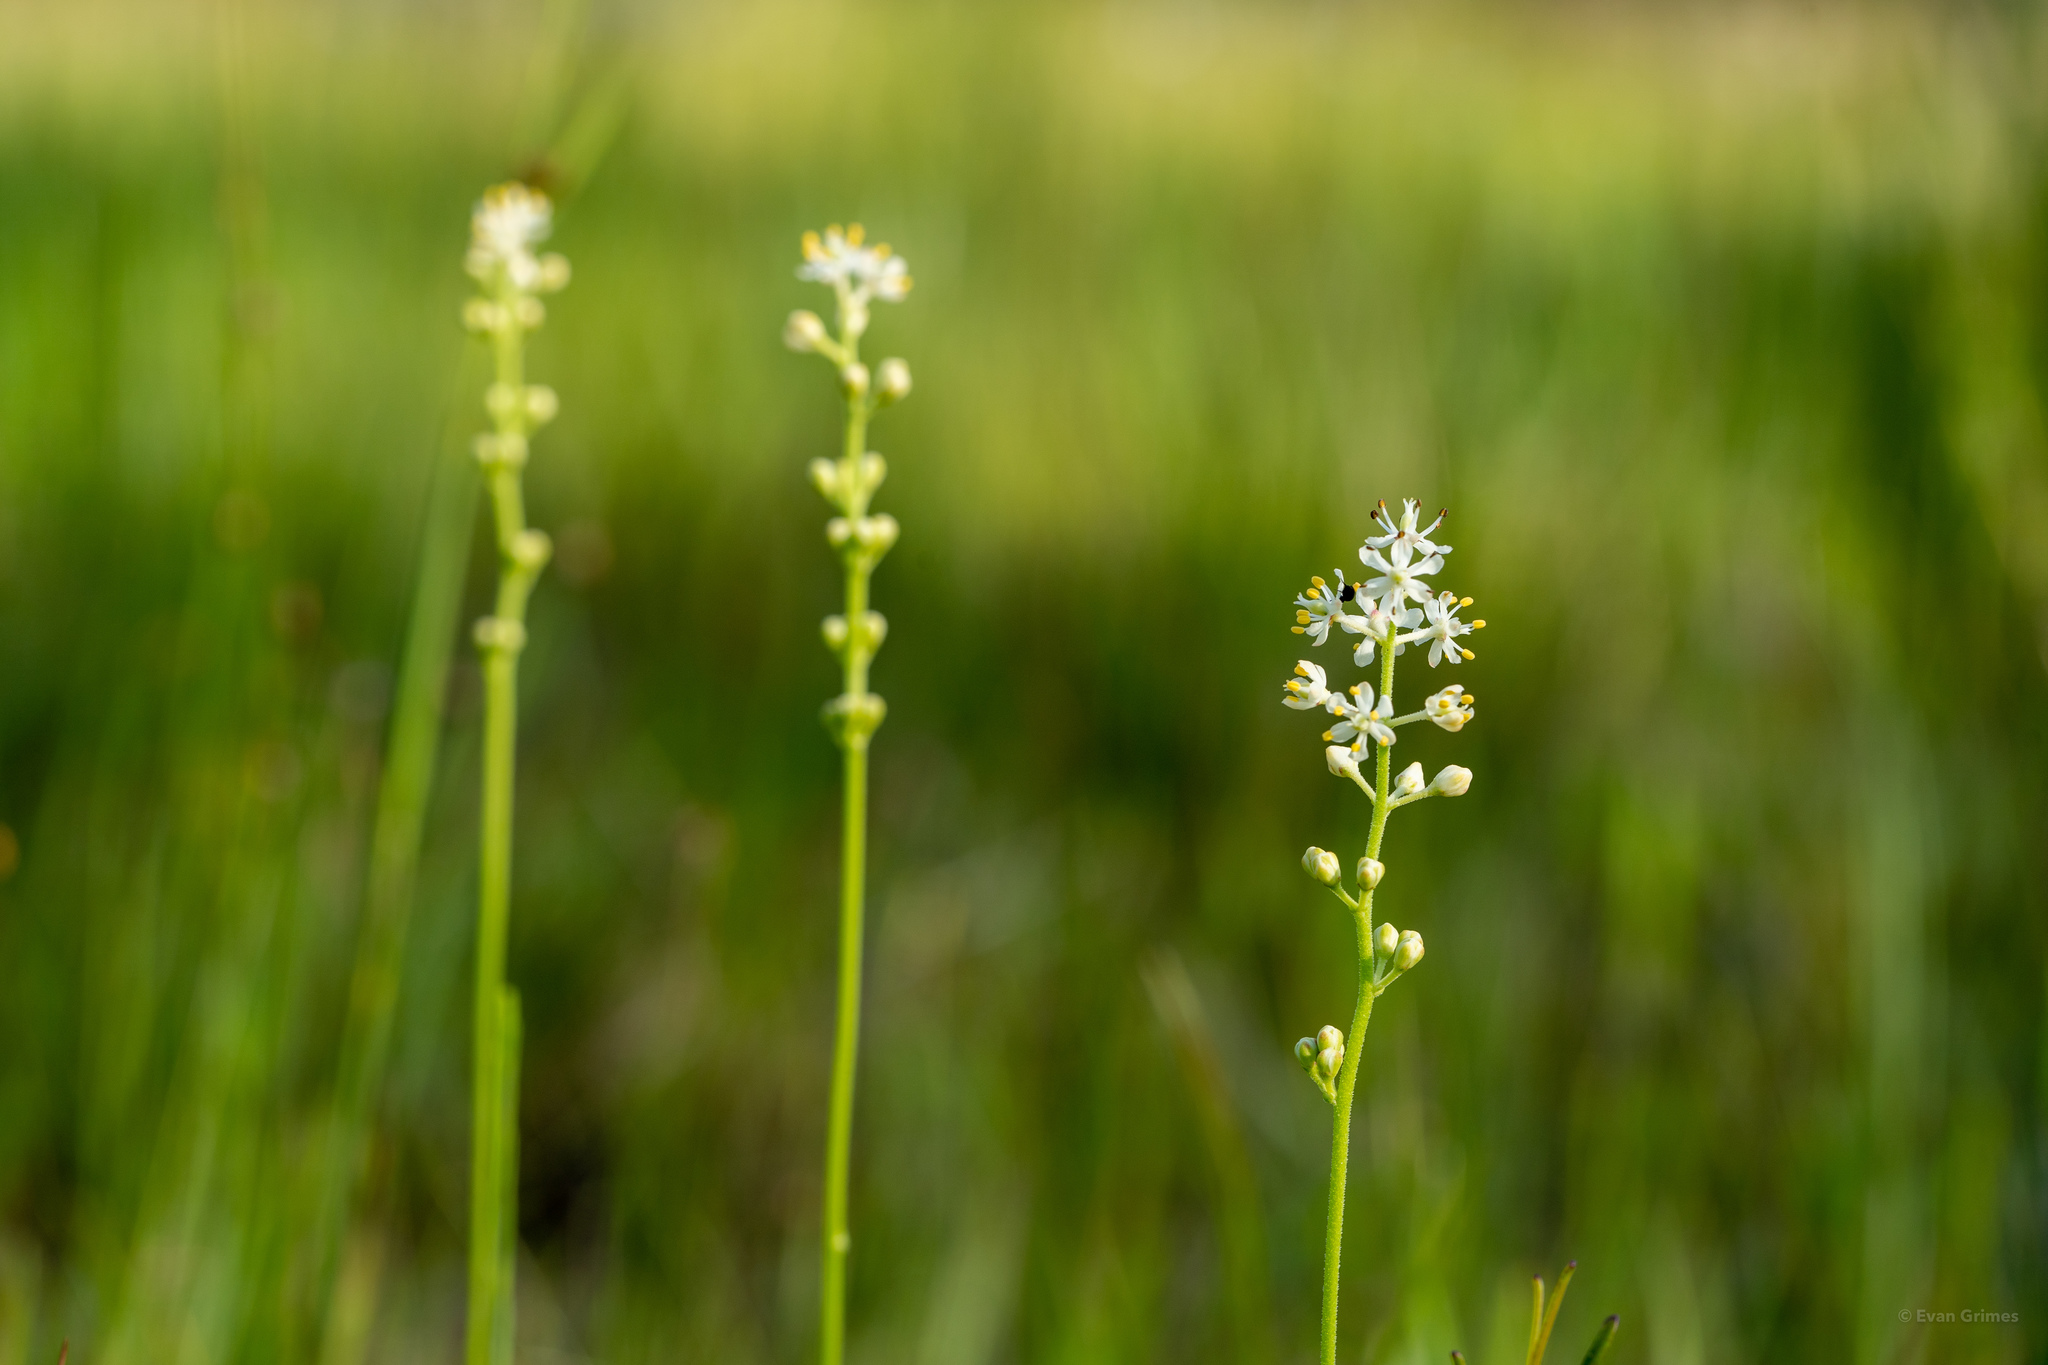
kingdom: Plantae
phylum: Tracheophyta
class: Liliopsida
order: Alismatales
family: Tofieldiaceae
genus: Triantha
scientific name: Triantha racemosa
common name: Coastal false asphodel
